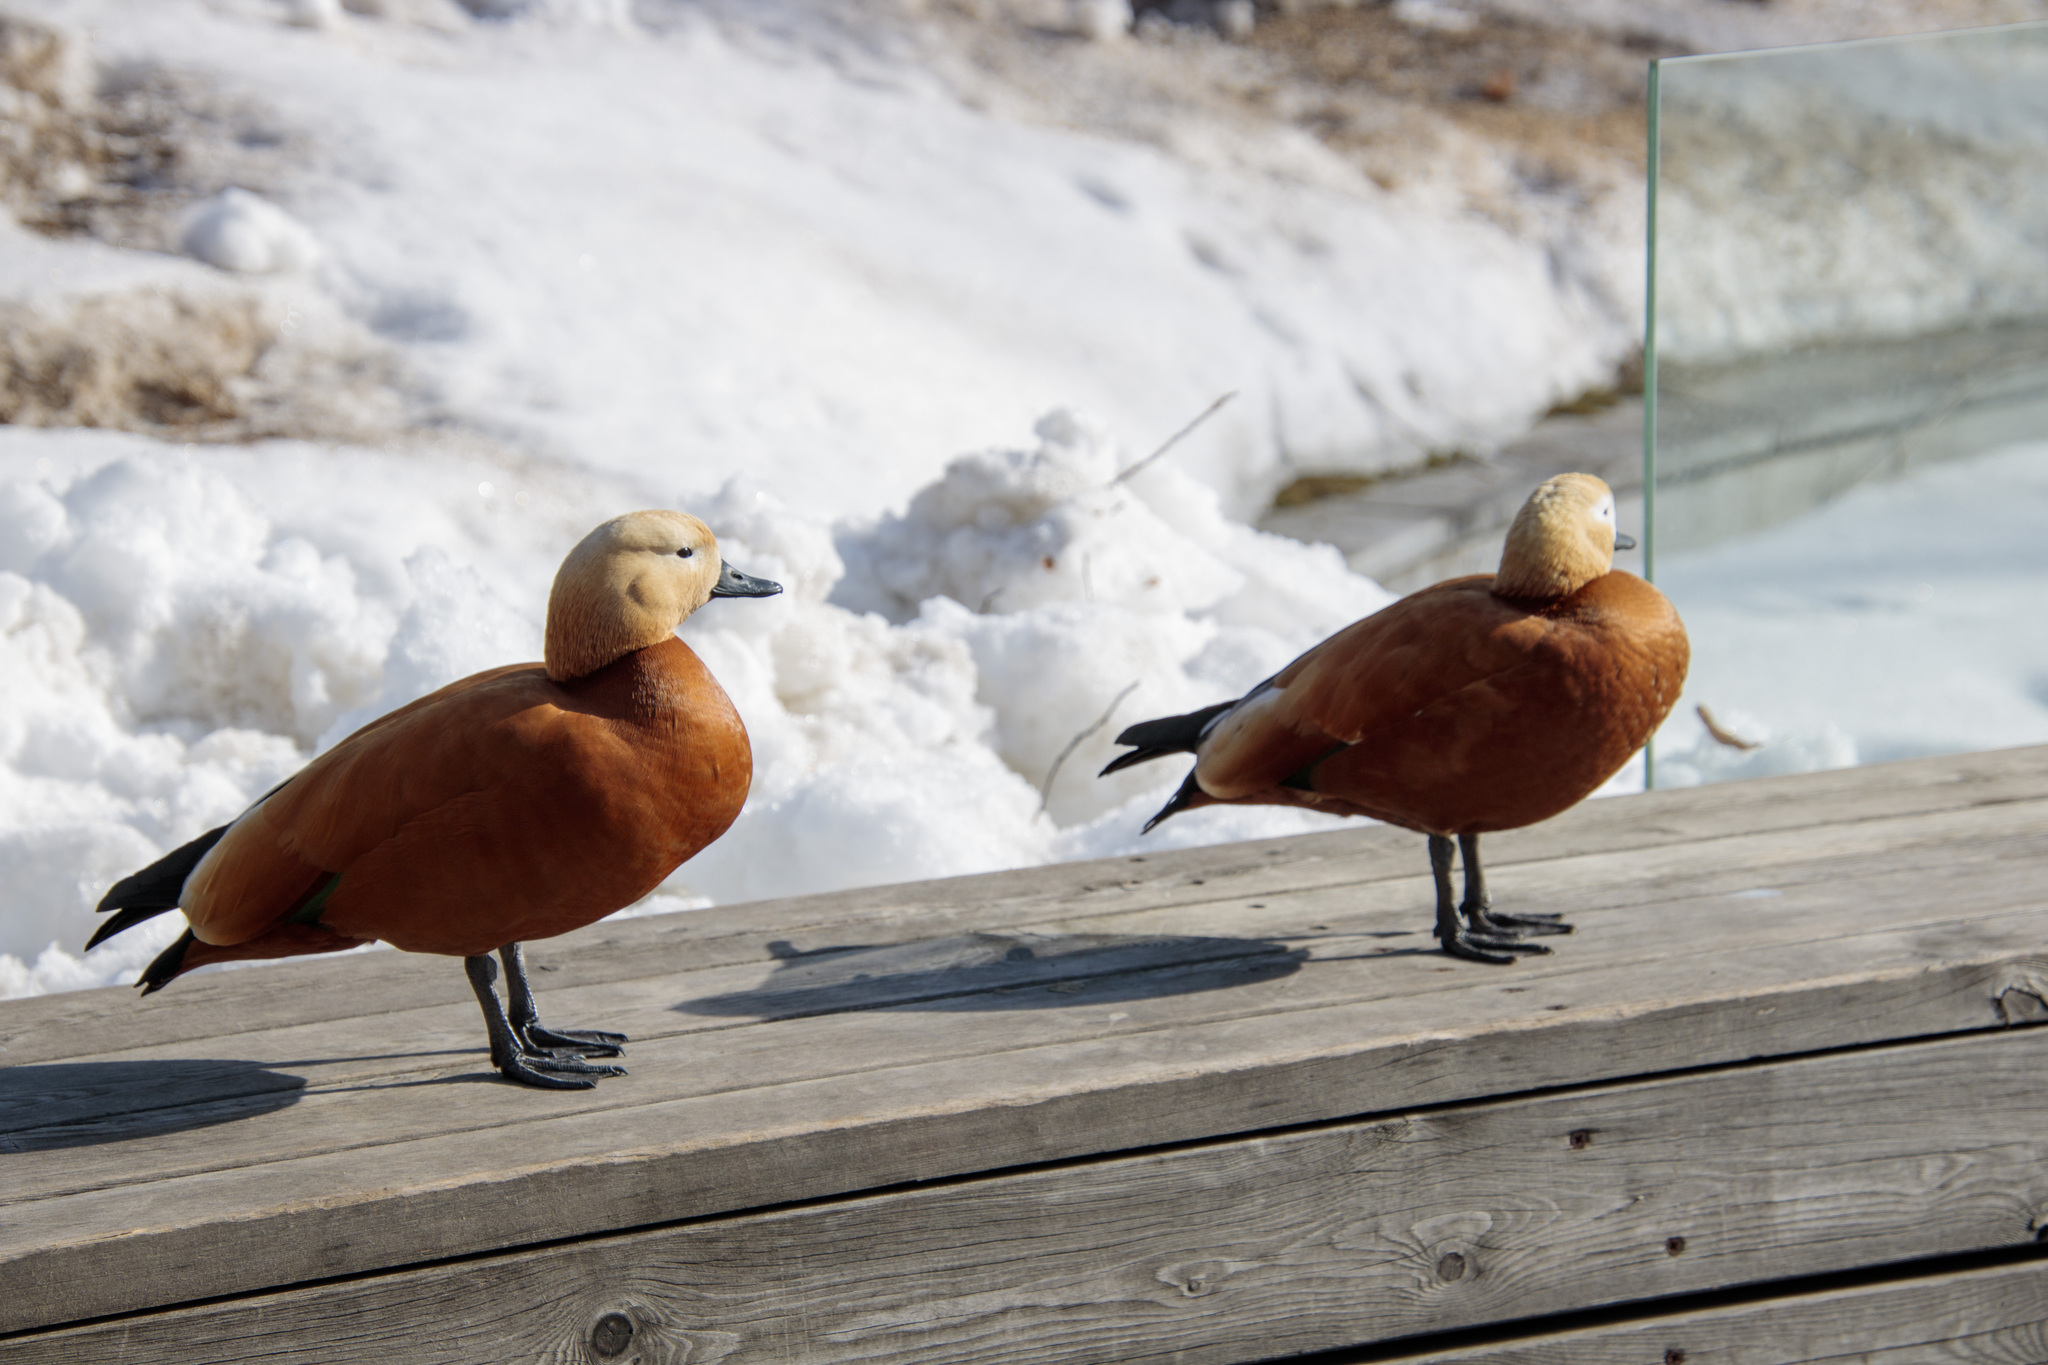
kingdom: Animalia
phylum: Chordata
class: Aves
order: Anseriformes
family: Anatidae
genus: Tadorna
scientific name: Tadorna ferruginea
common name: Ruddy shelduck
